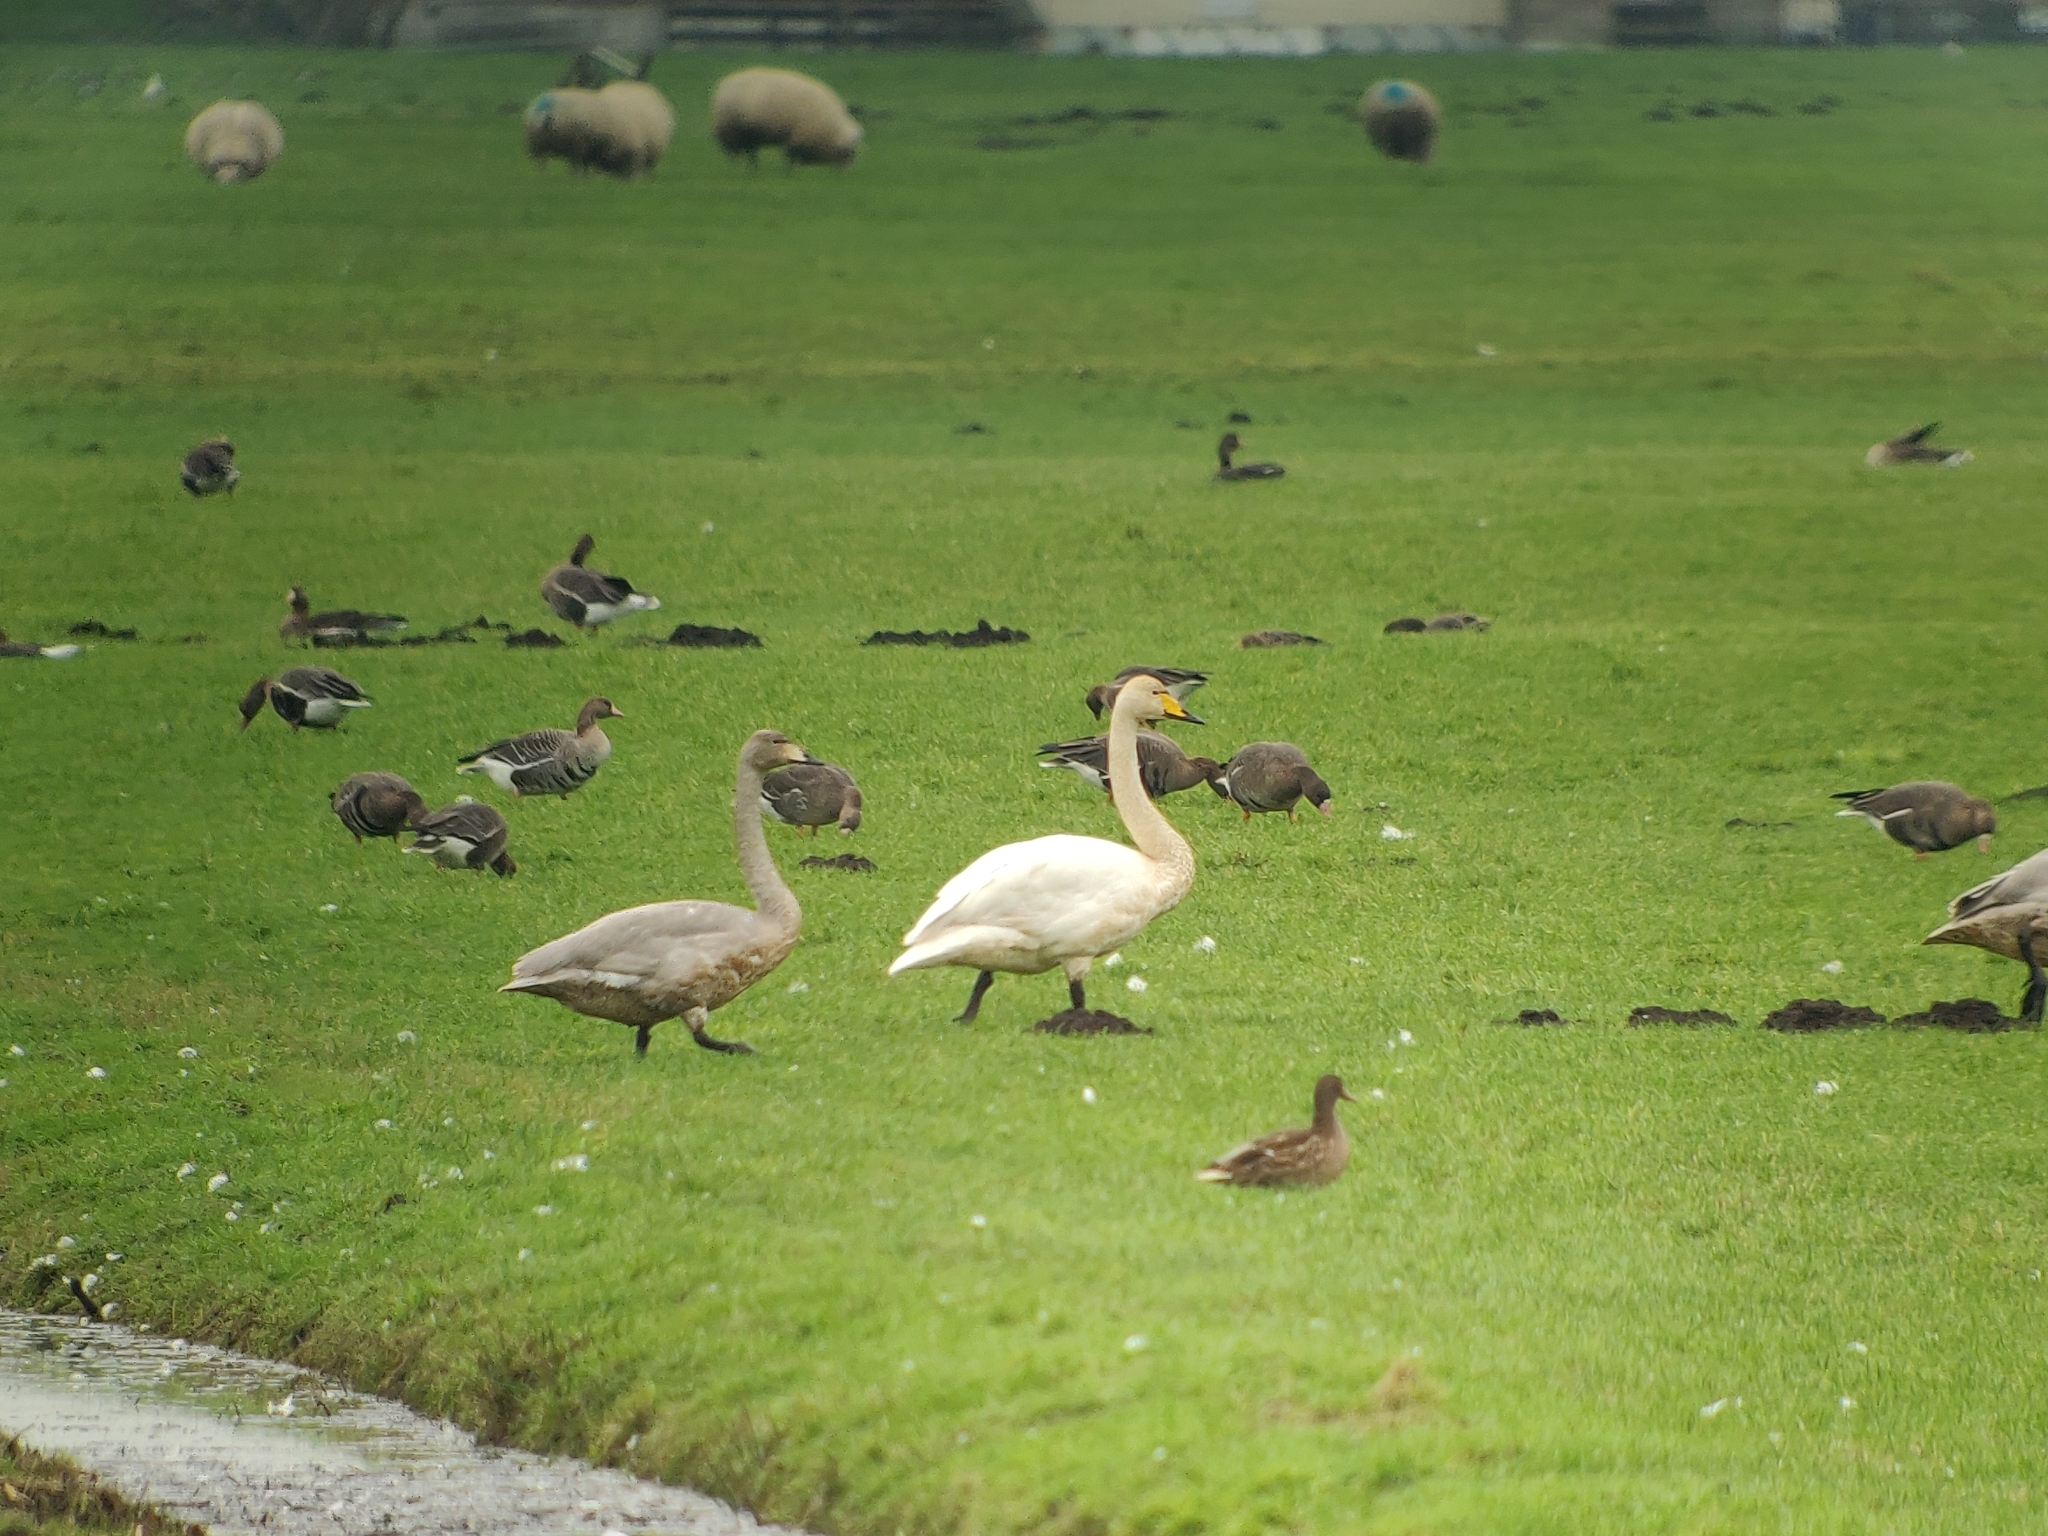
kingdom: Animalia
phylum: Chordata
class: Aves
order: Anseriformes
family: Anatidae
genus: Cygnus
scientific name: Cygnus cygnus
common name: Whooper swan
